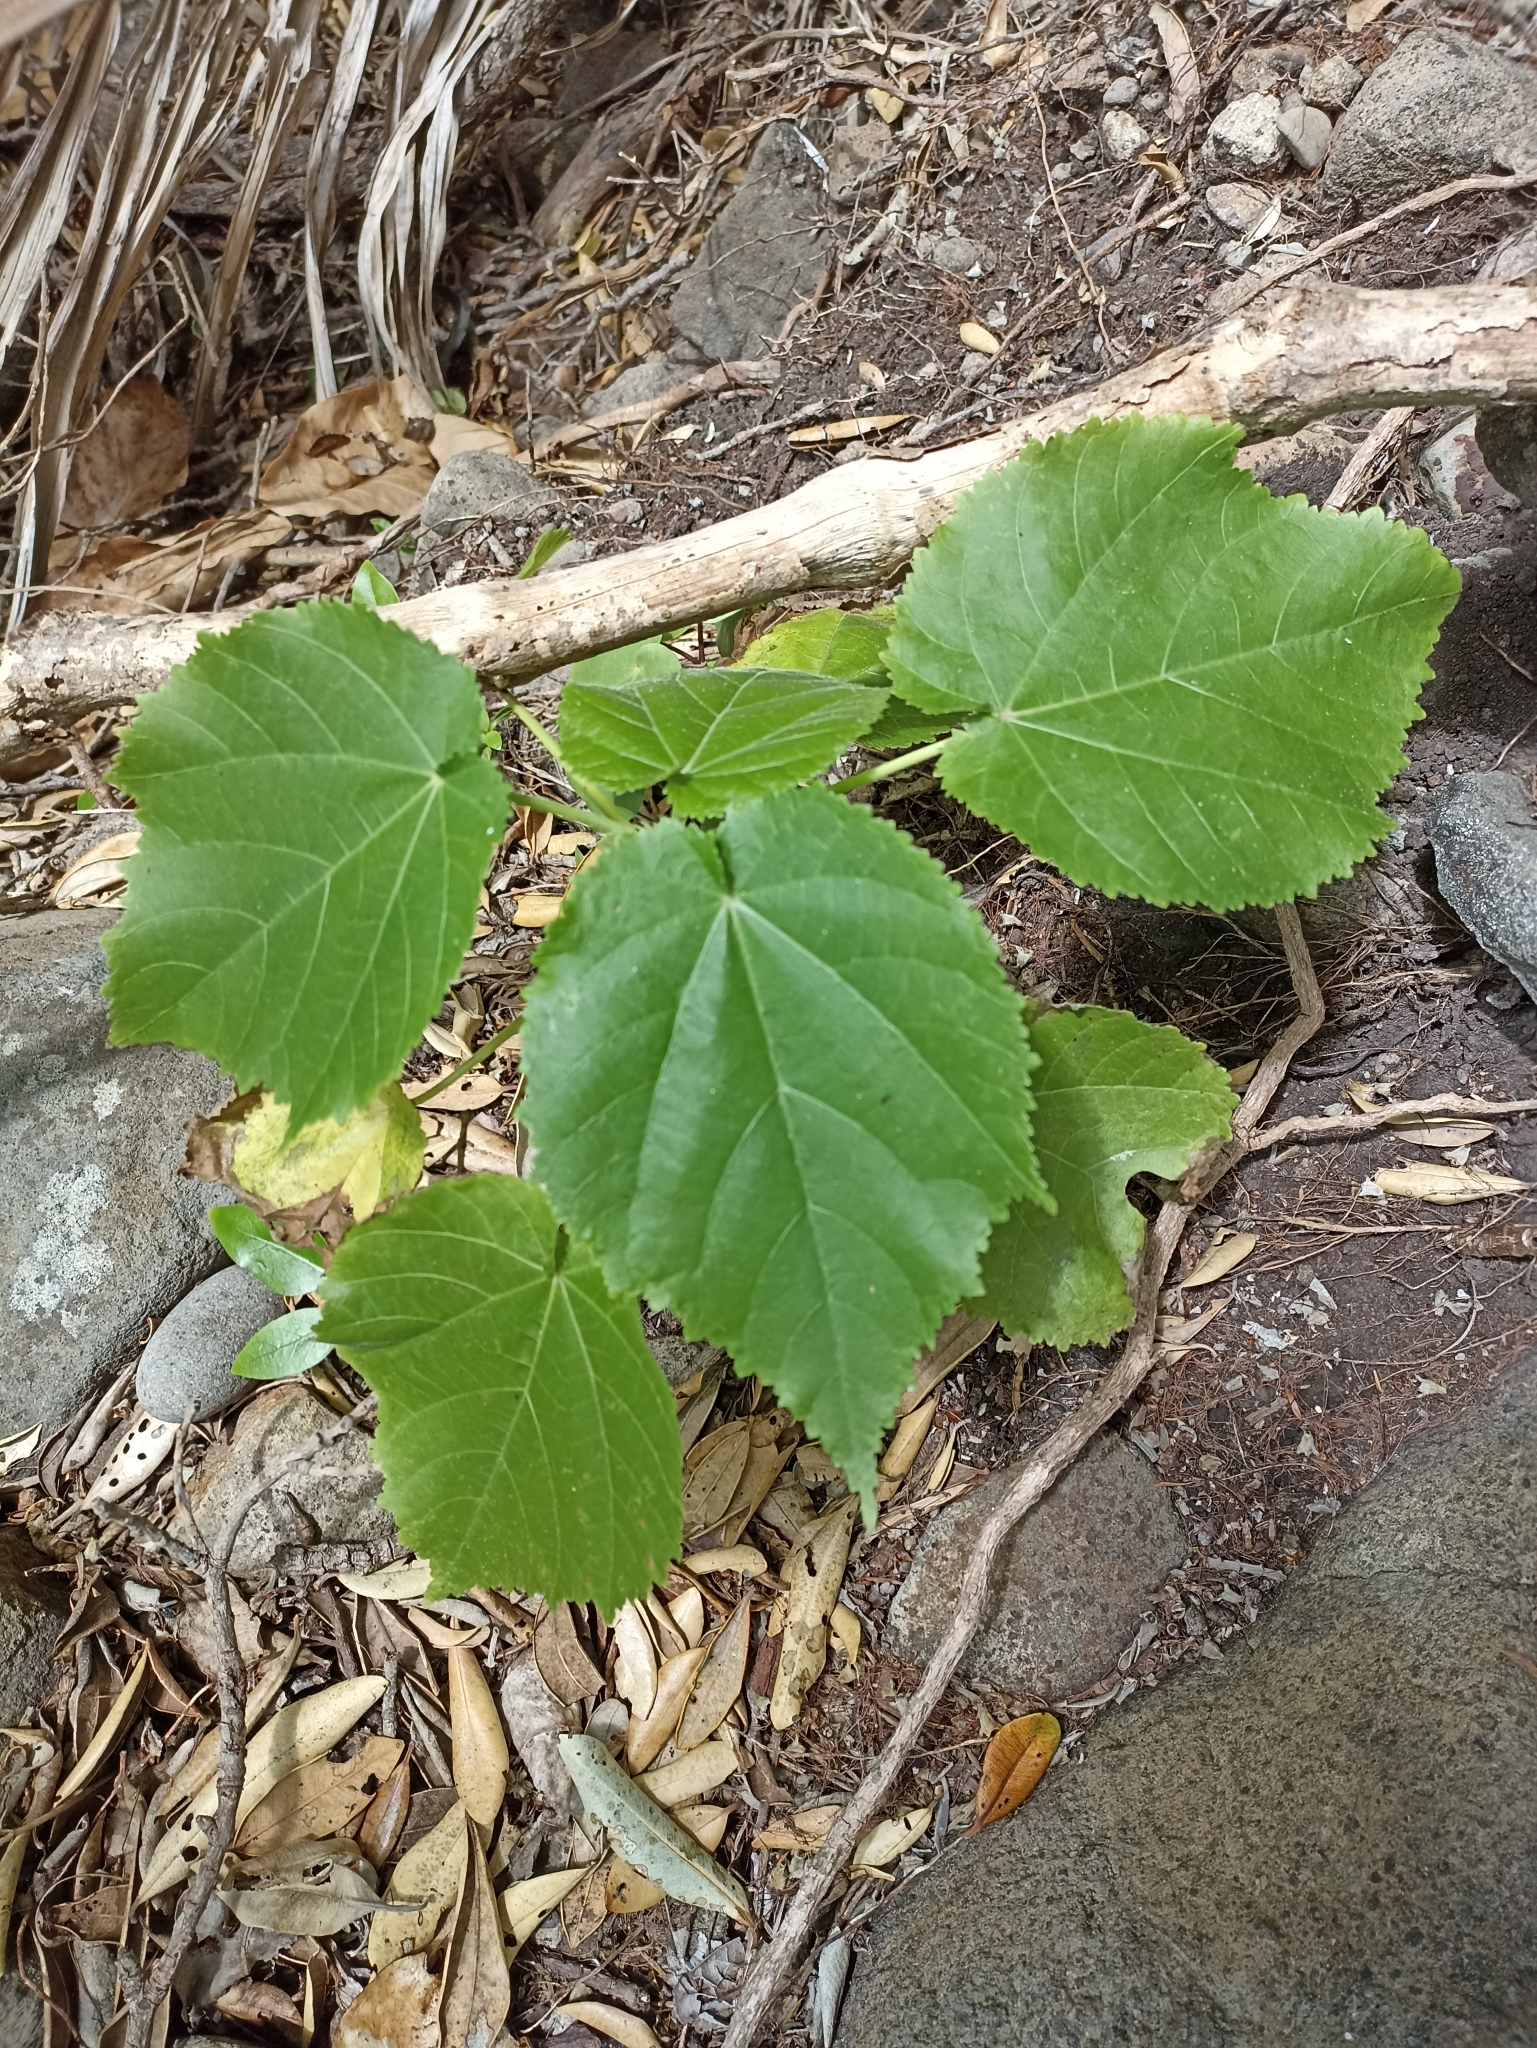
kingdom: Plantae
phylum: Tracheophyta
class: Magnoliopsida
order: Malvales
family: Malvaceae
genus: Entelea
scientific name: Entelea arborescens
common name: New zealand-mulberry
